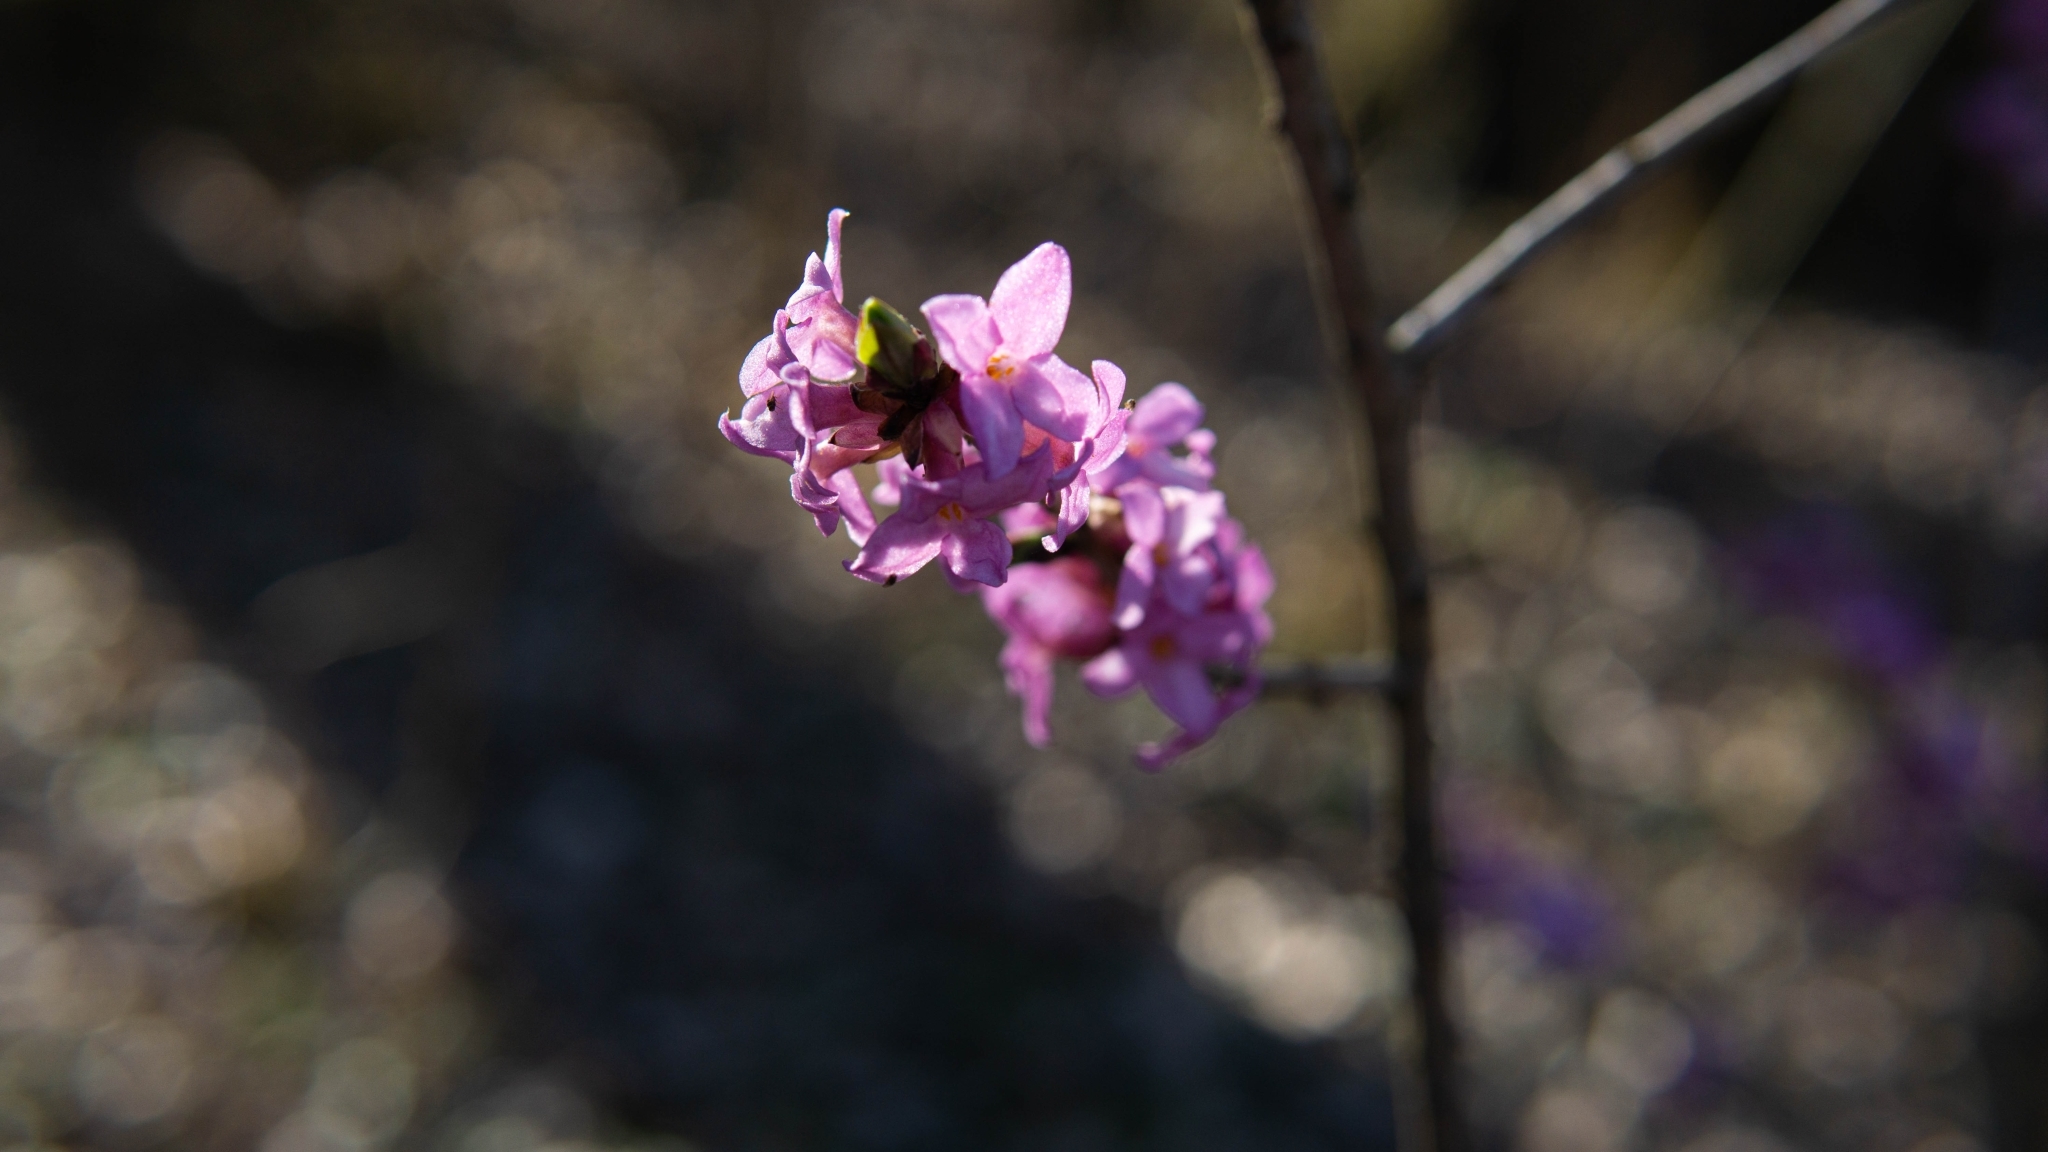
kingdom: Plantae
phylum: Tracheophyta
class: Magnoliopsida
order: Malvales
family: Thymelaeaceae
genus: Daphne
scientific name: Daphne mezereum
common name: Mezereon
